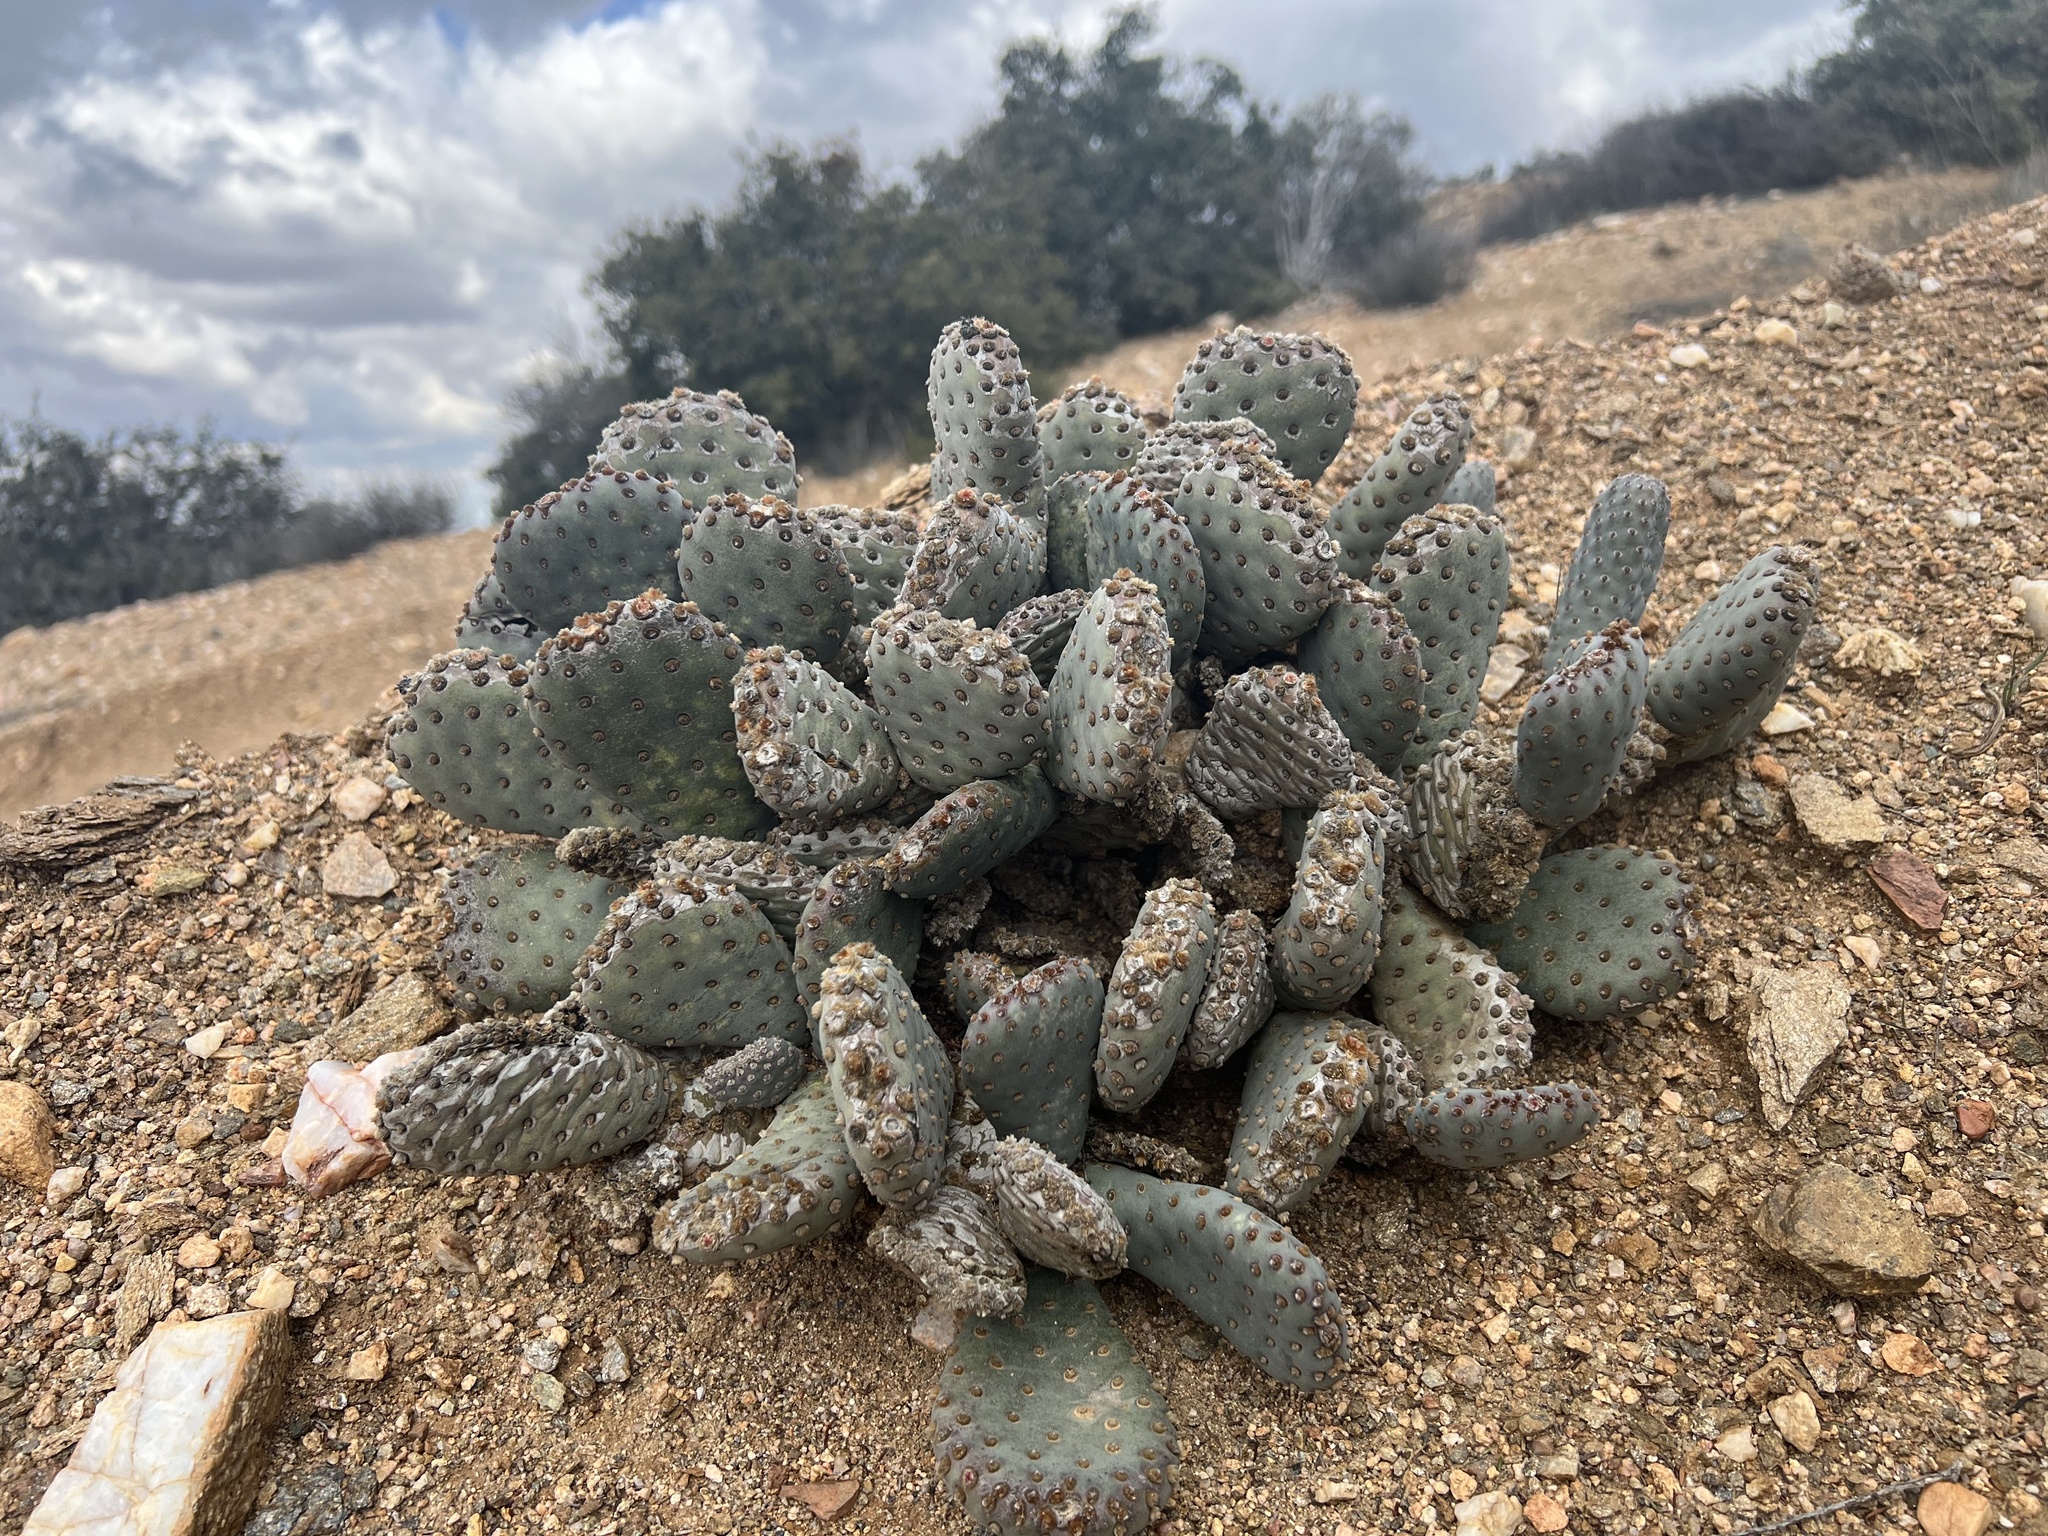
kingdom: Plantae
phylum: Tracheophyta
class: Magnoliopsida
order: Caryophyllales
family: Cactaceae
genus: Opuntia
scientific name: Opuntia basilaris
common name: Beavertail prickly-pear
